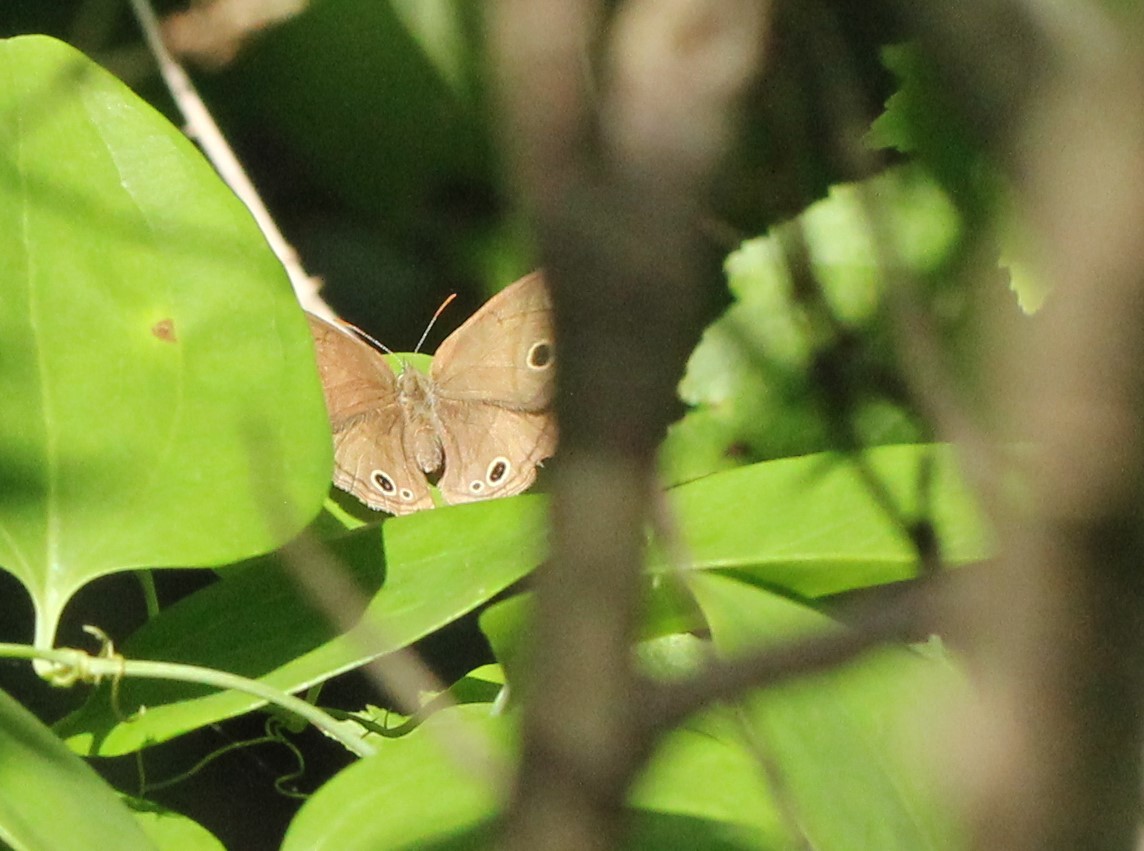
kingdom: Animalia
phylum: Arthropoda
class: Insecta
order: Lepidoptera
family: Nymphalidae
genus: Euptychia
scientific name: Euptychia cymela
